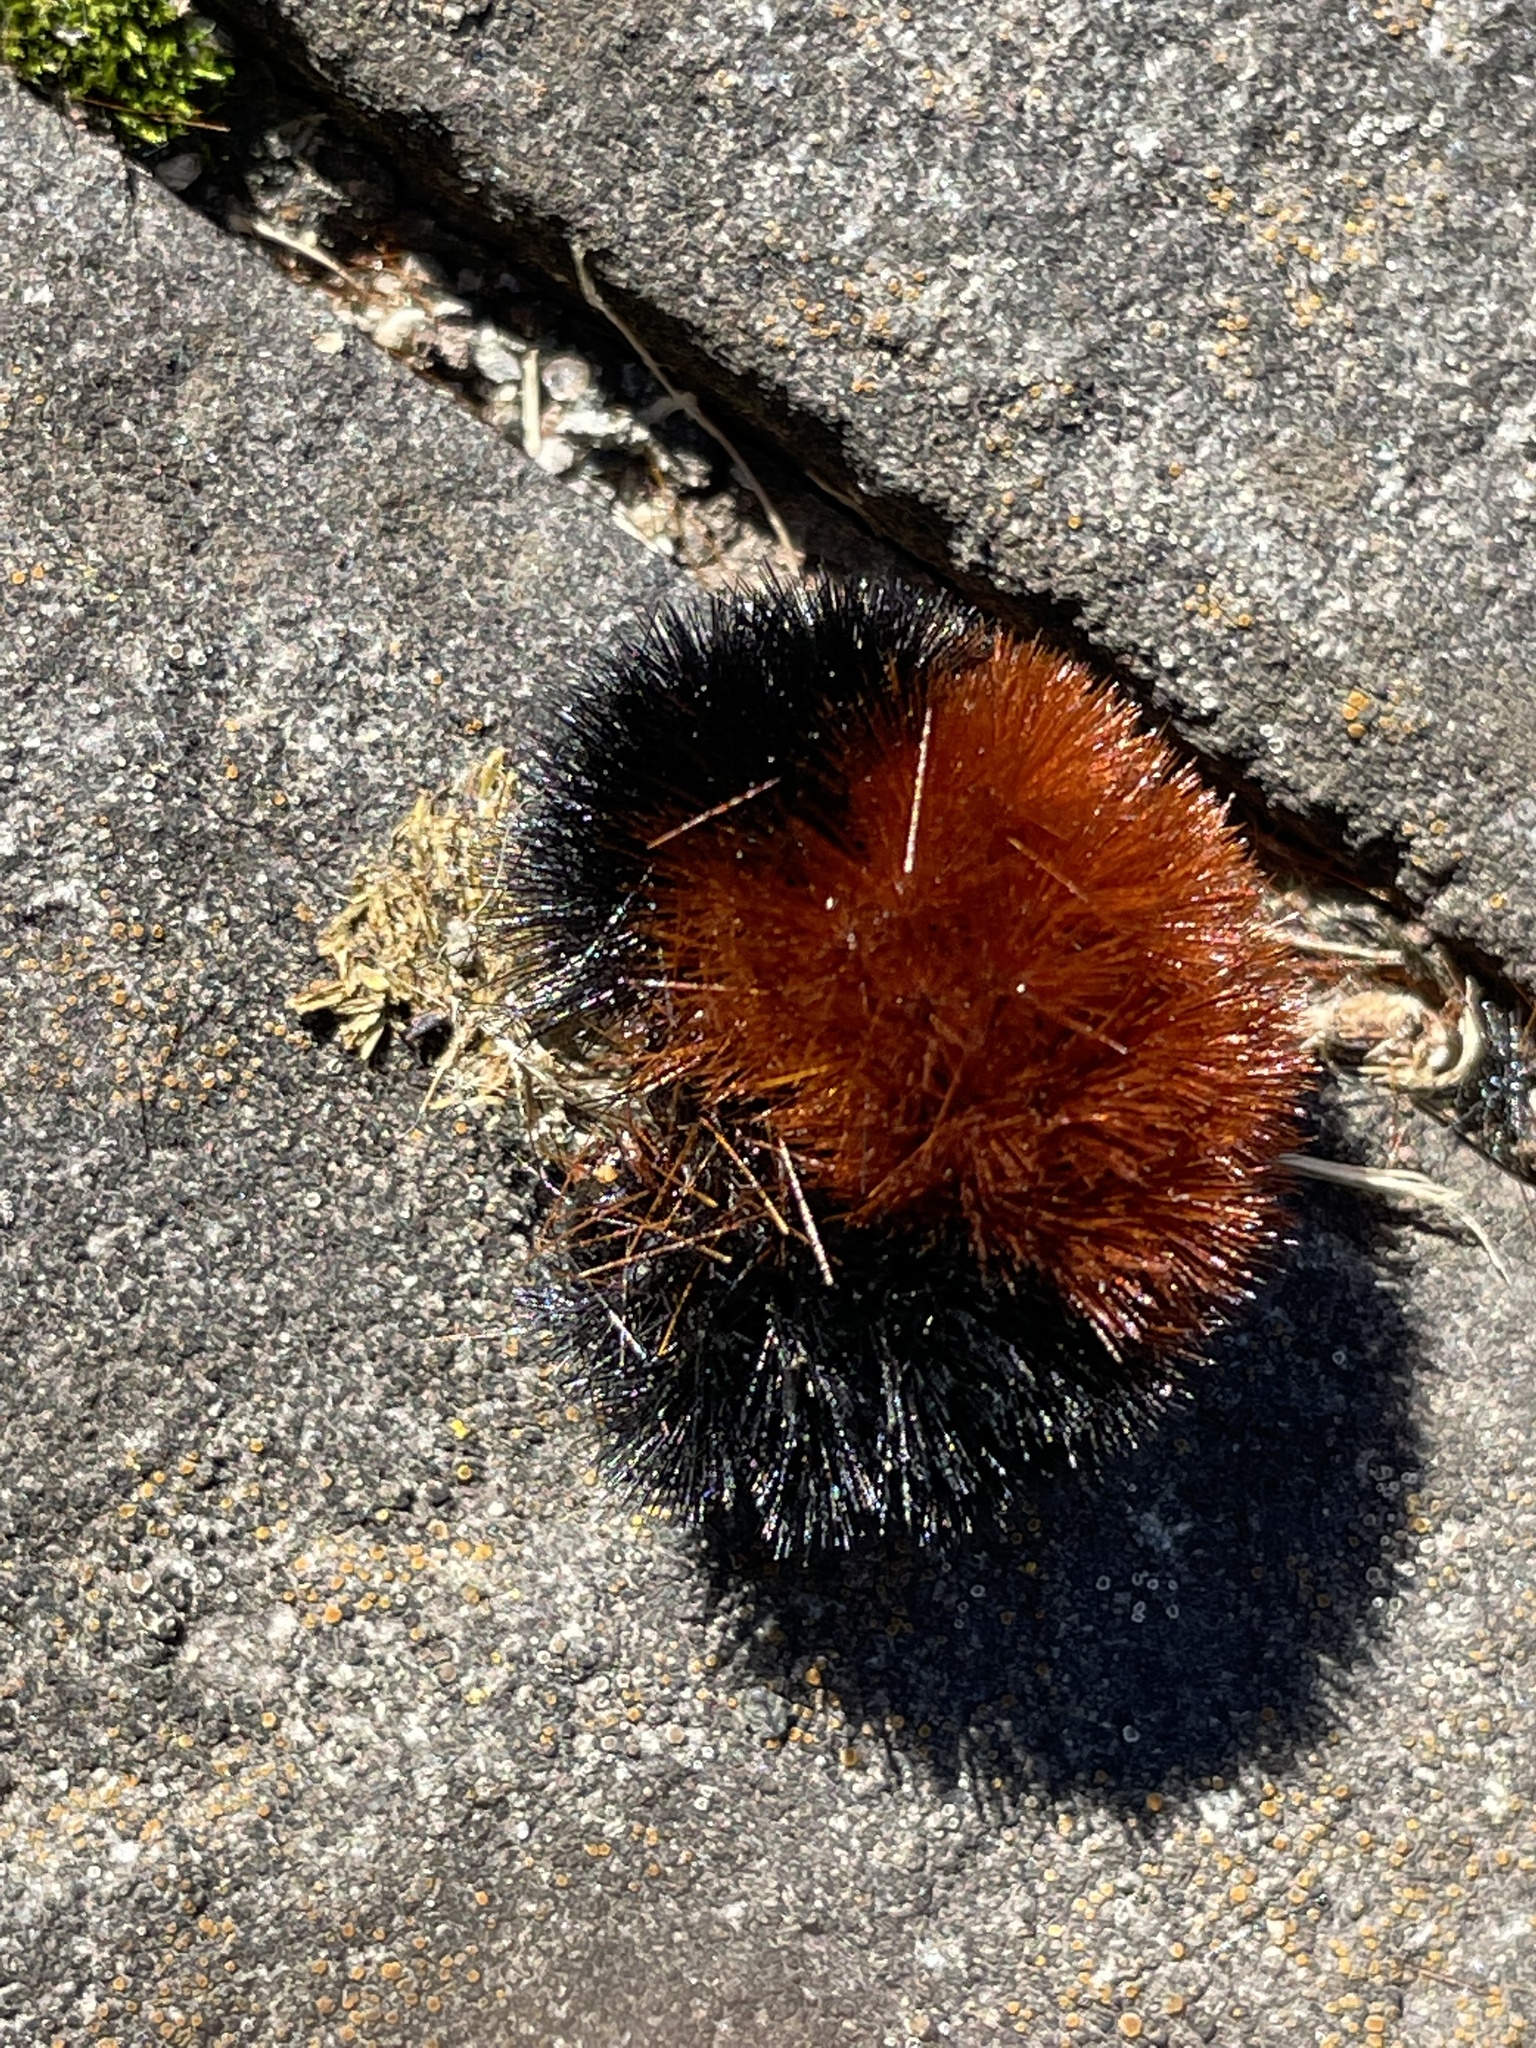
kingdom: Animalia
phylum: Arthropoda
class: Insecta
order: Lepidoptera
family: Erebidae
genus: Pyrrharctia
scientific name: Pyrrharctia isabella
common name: Isabella tiger moth
